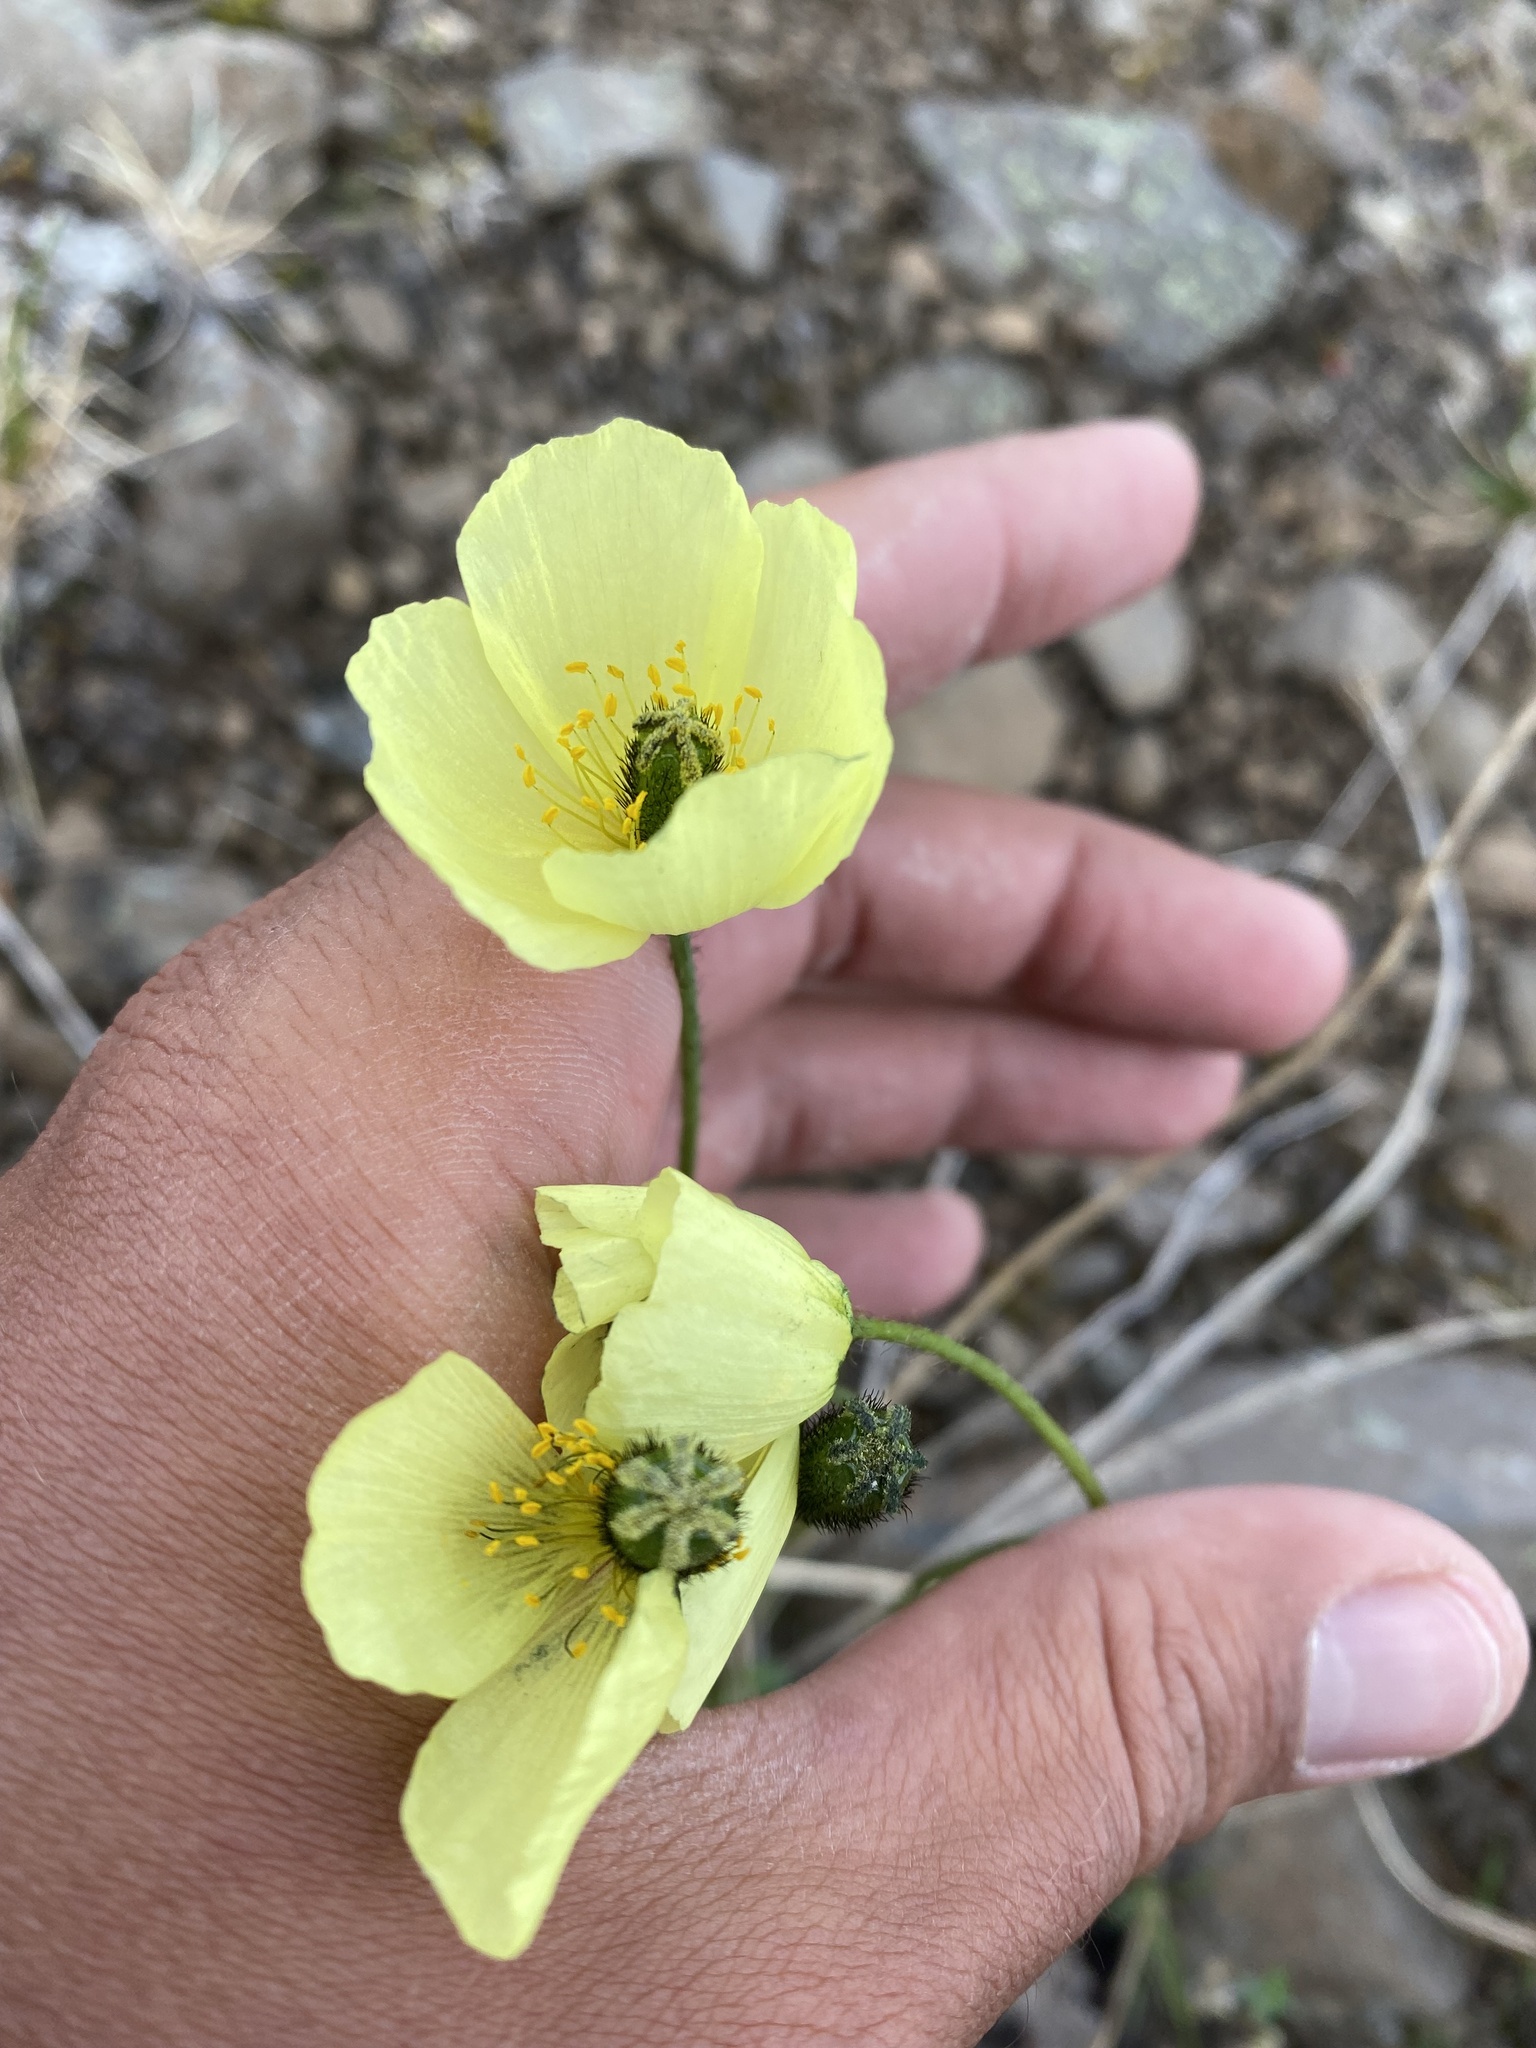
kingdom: Plantae
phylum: Tracheophyta
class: Magnoliopsida
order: Ranunculales
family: Papaveraceae
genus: Papaver
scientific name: Papaver lapponicum
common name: Lapland poppy
